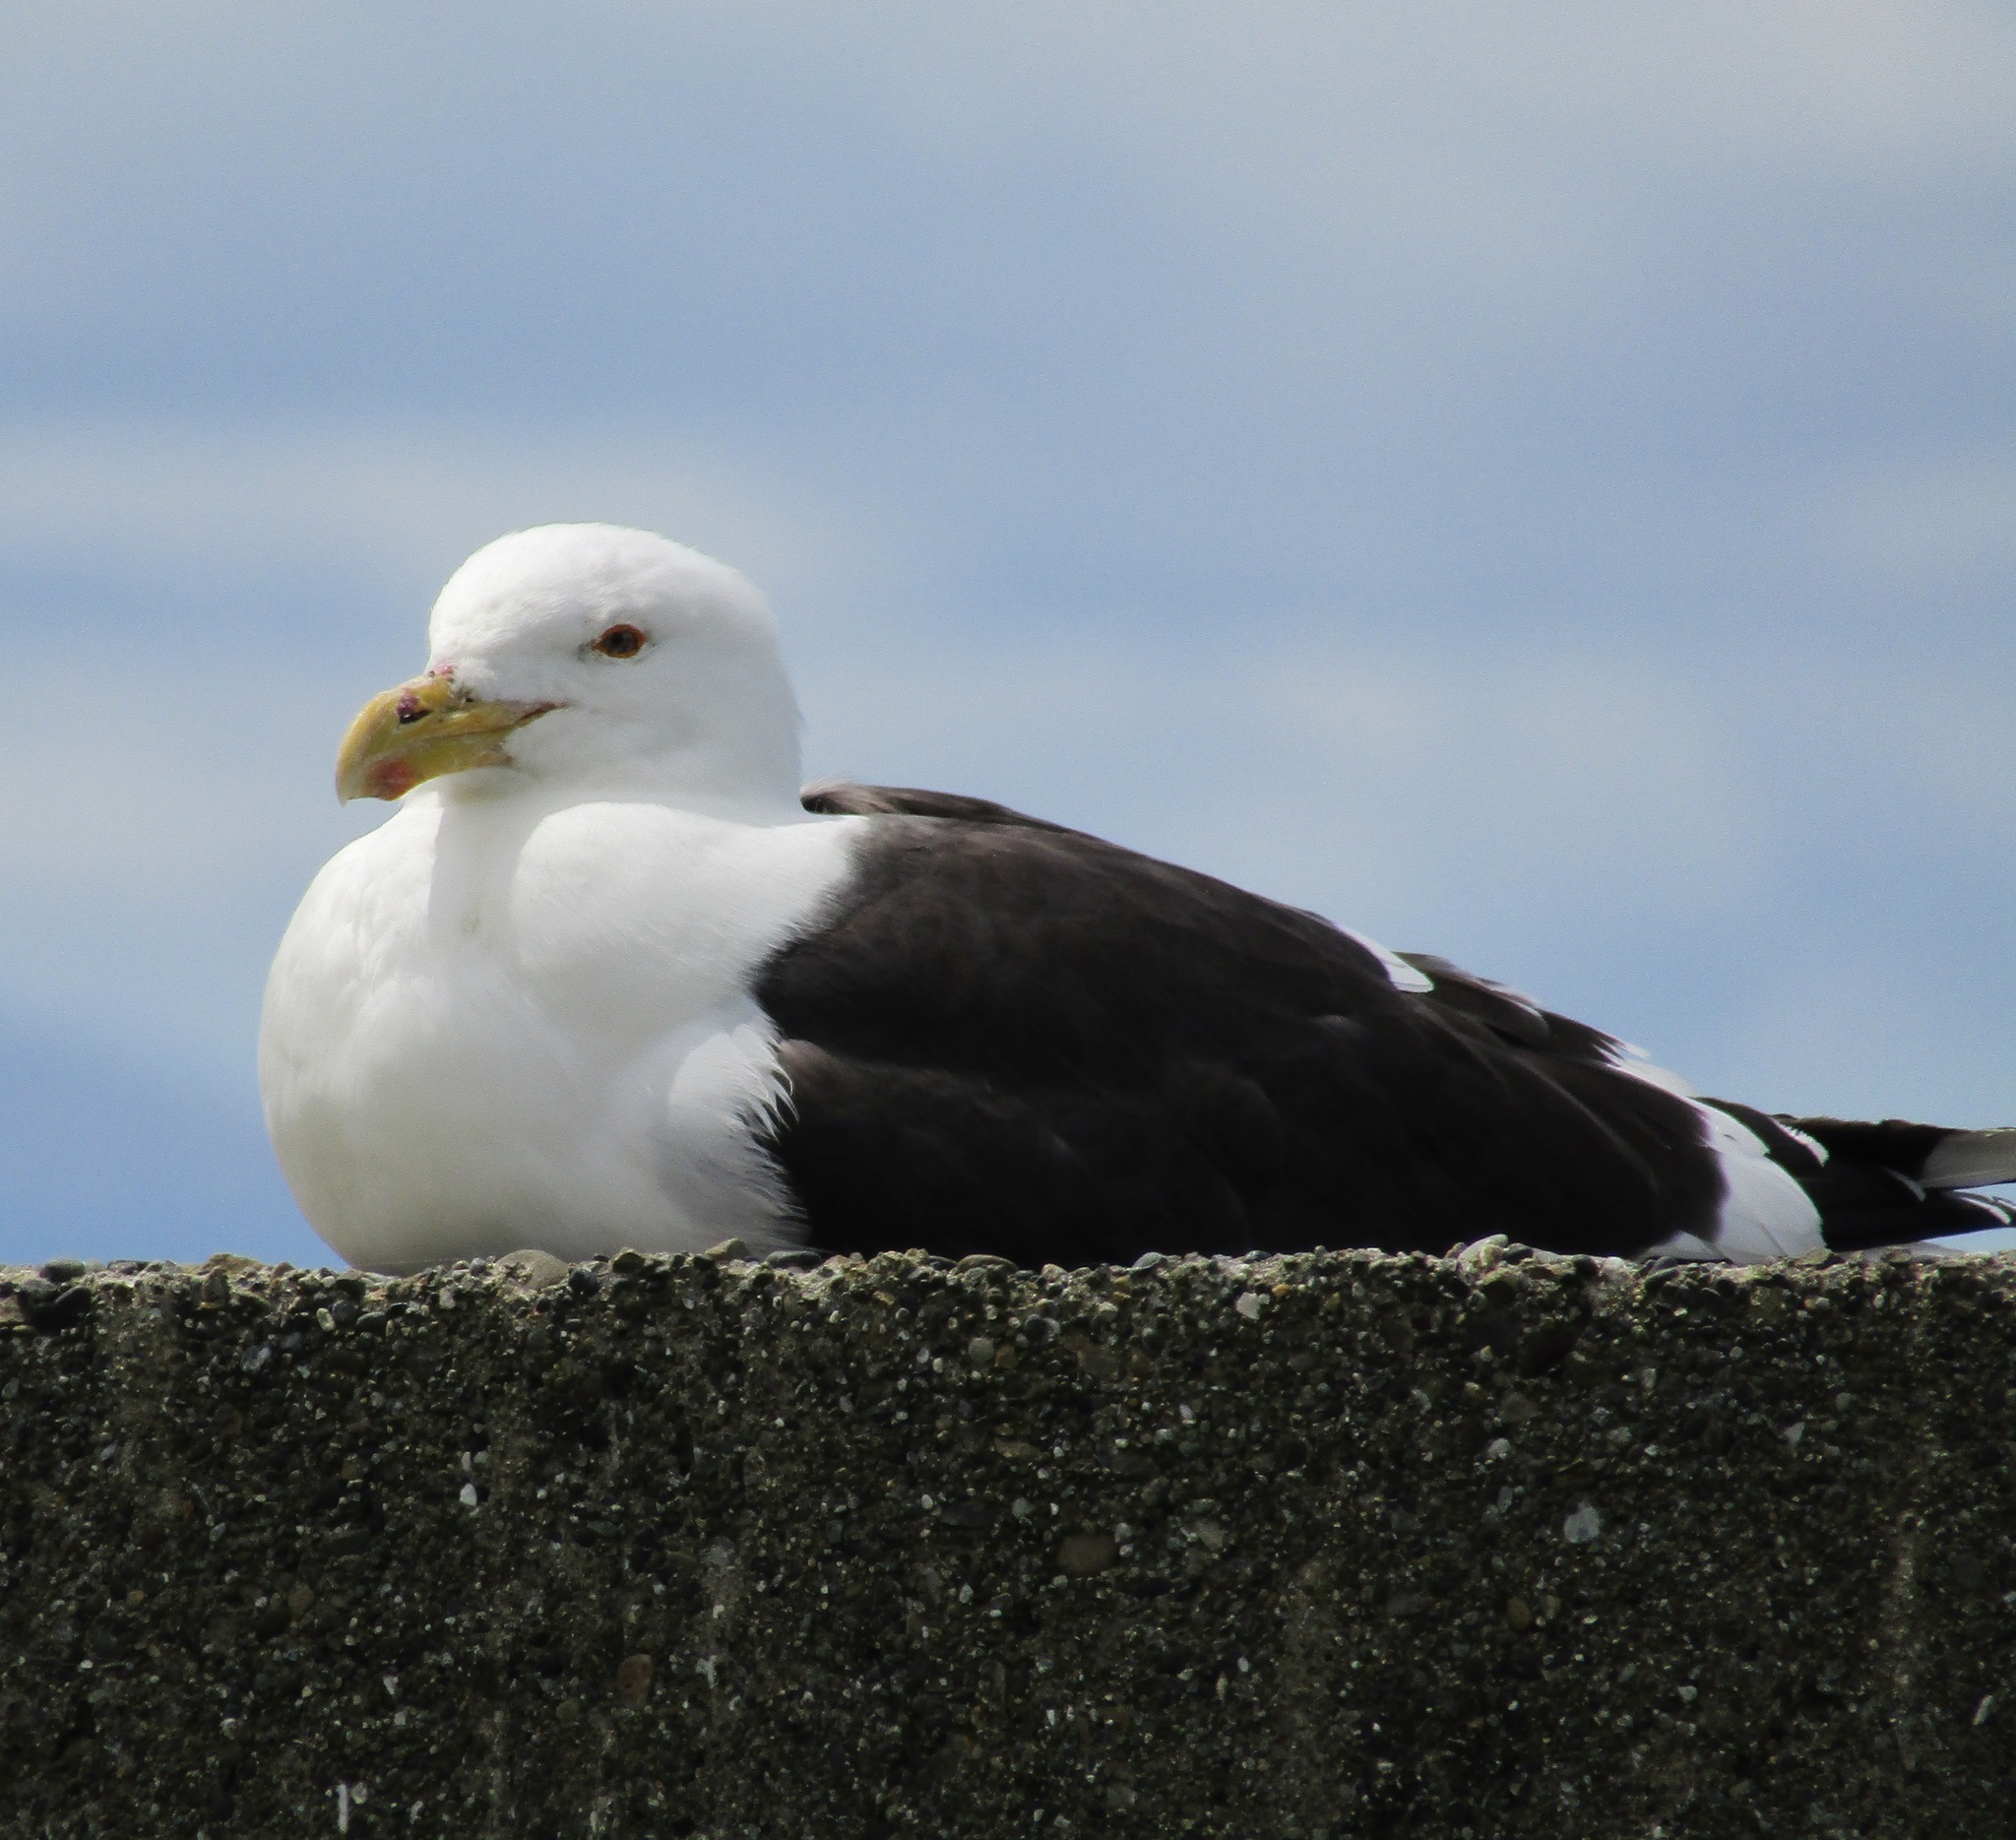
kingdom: Animalia
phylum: Chordata
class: Aves
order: Charadriiformes
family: Laridae
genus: Larus
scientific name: Larus dominicanus
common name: Kelp gull
